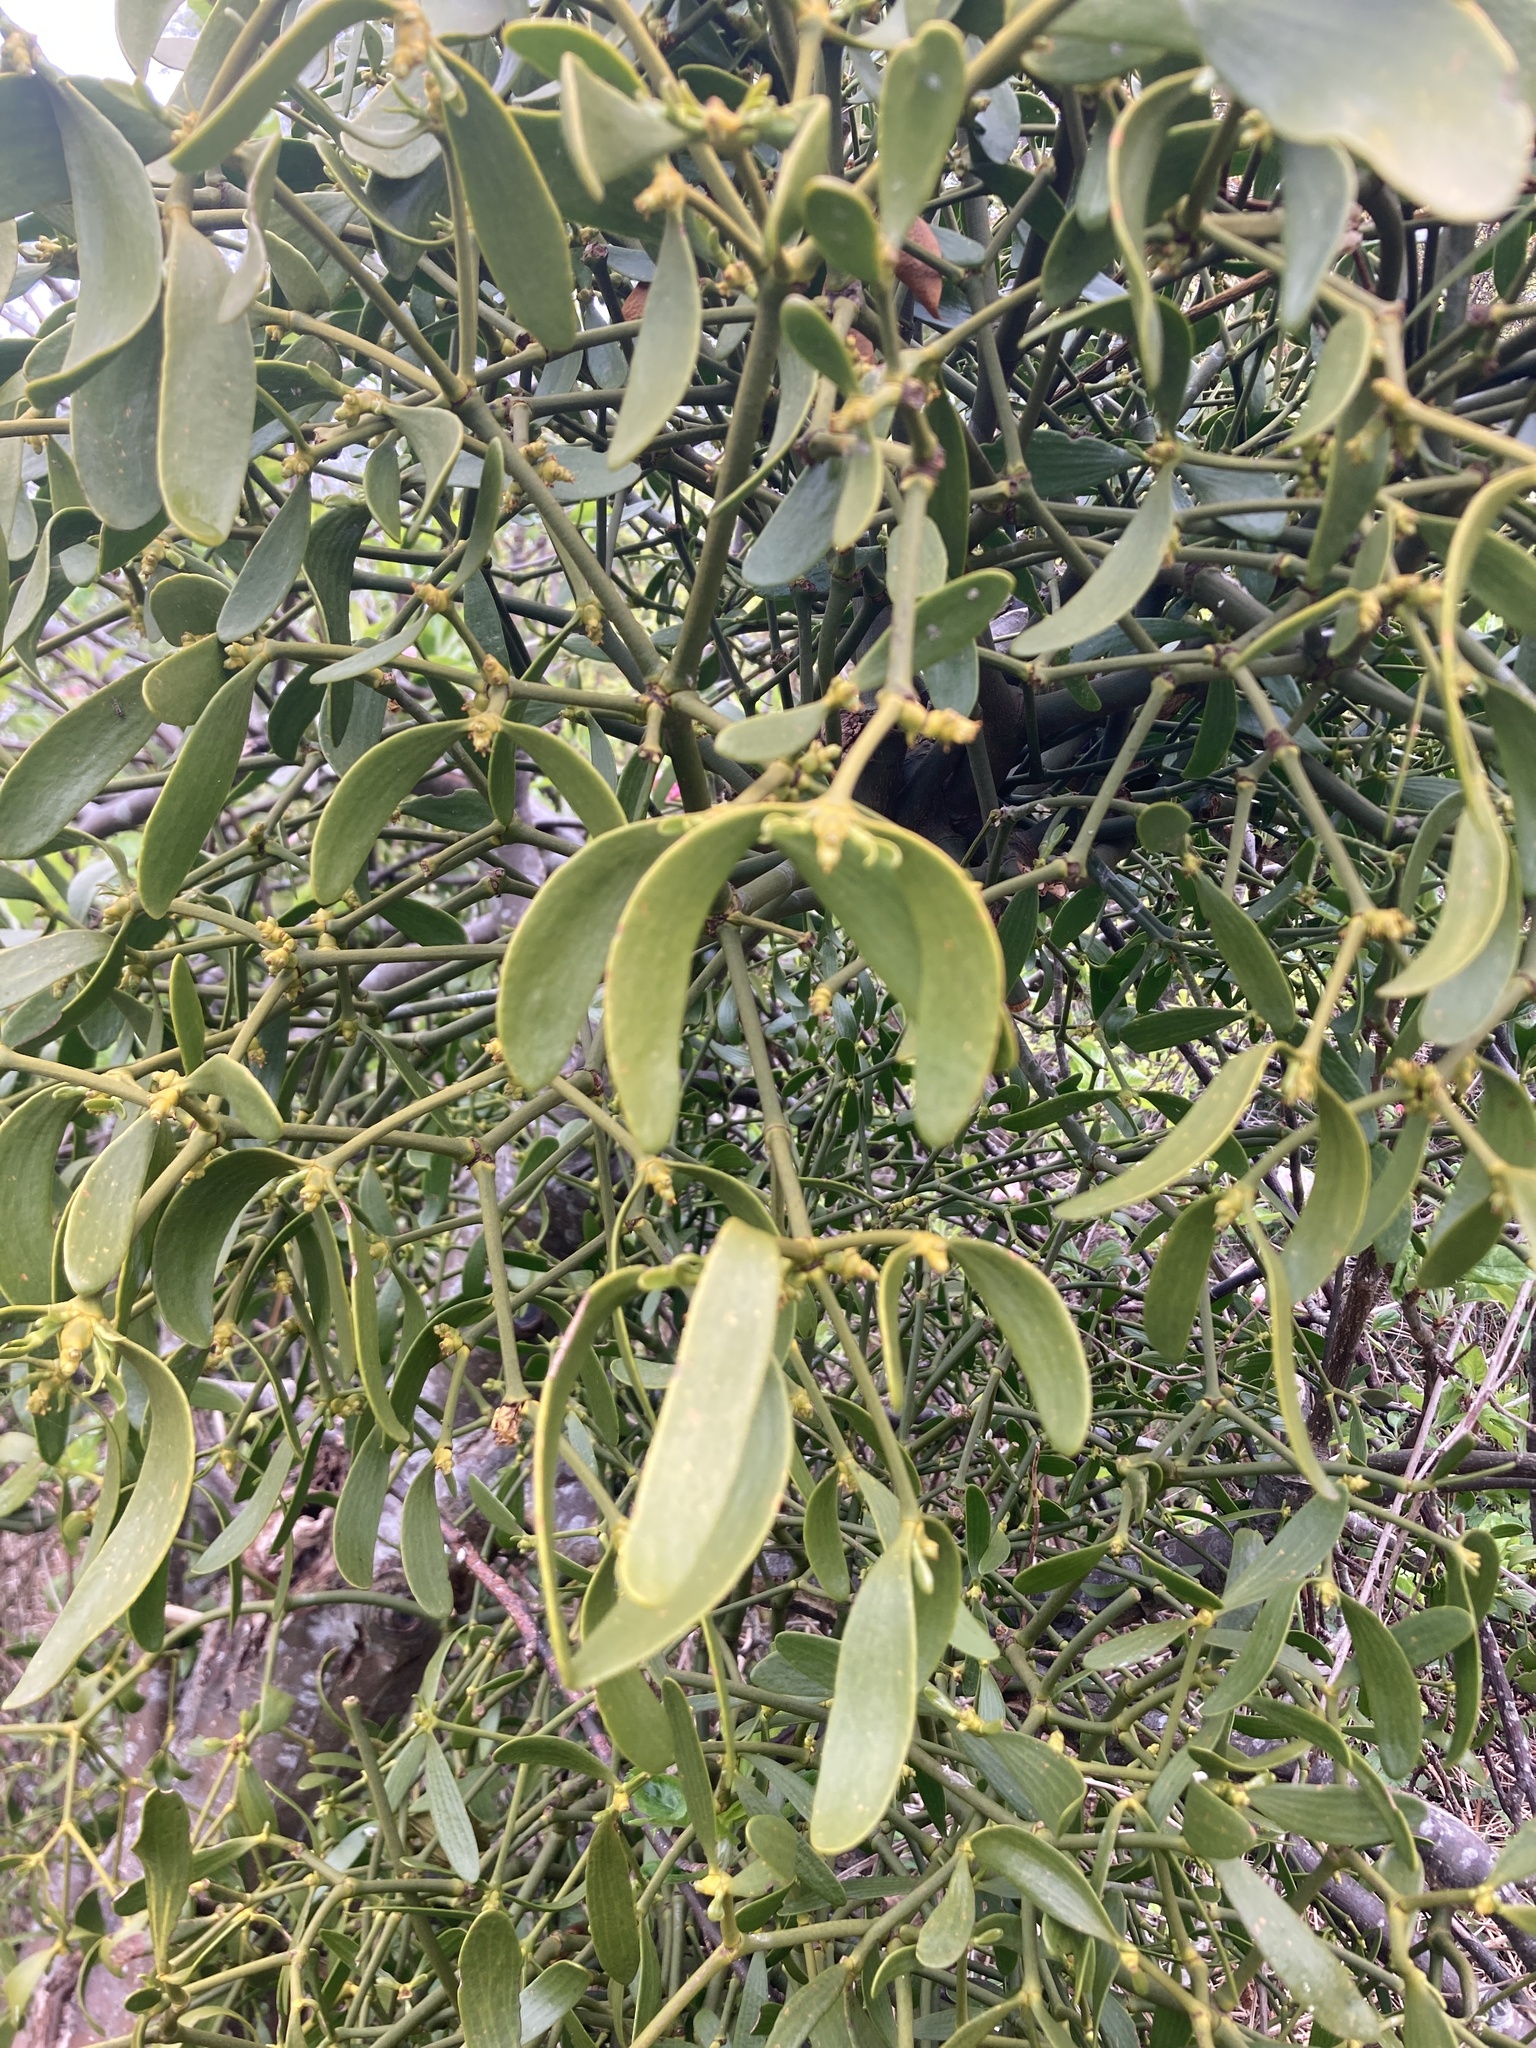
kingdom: Plantae
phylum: Tracheophyta
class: Magnoliopsida
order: Santalales
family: Viscaceae
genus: Viscum
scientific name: Viscum album
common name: Mistletoe
